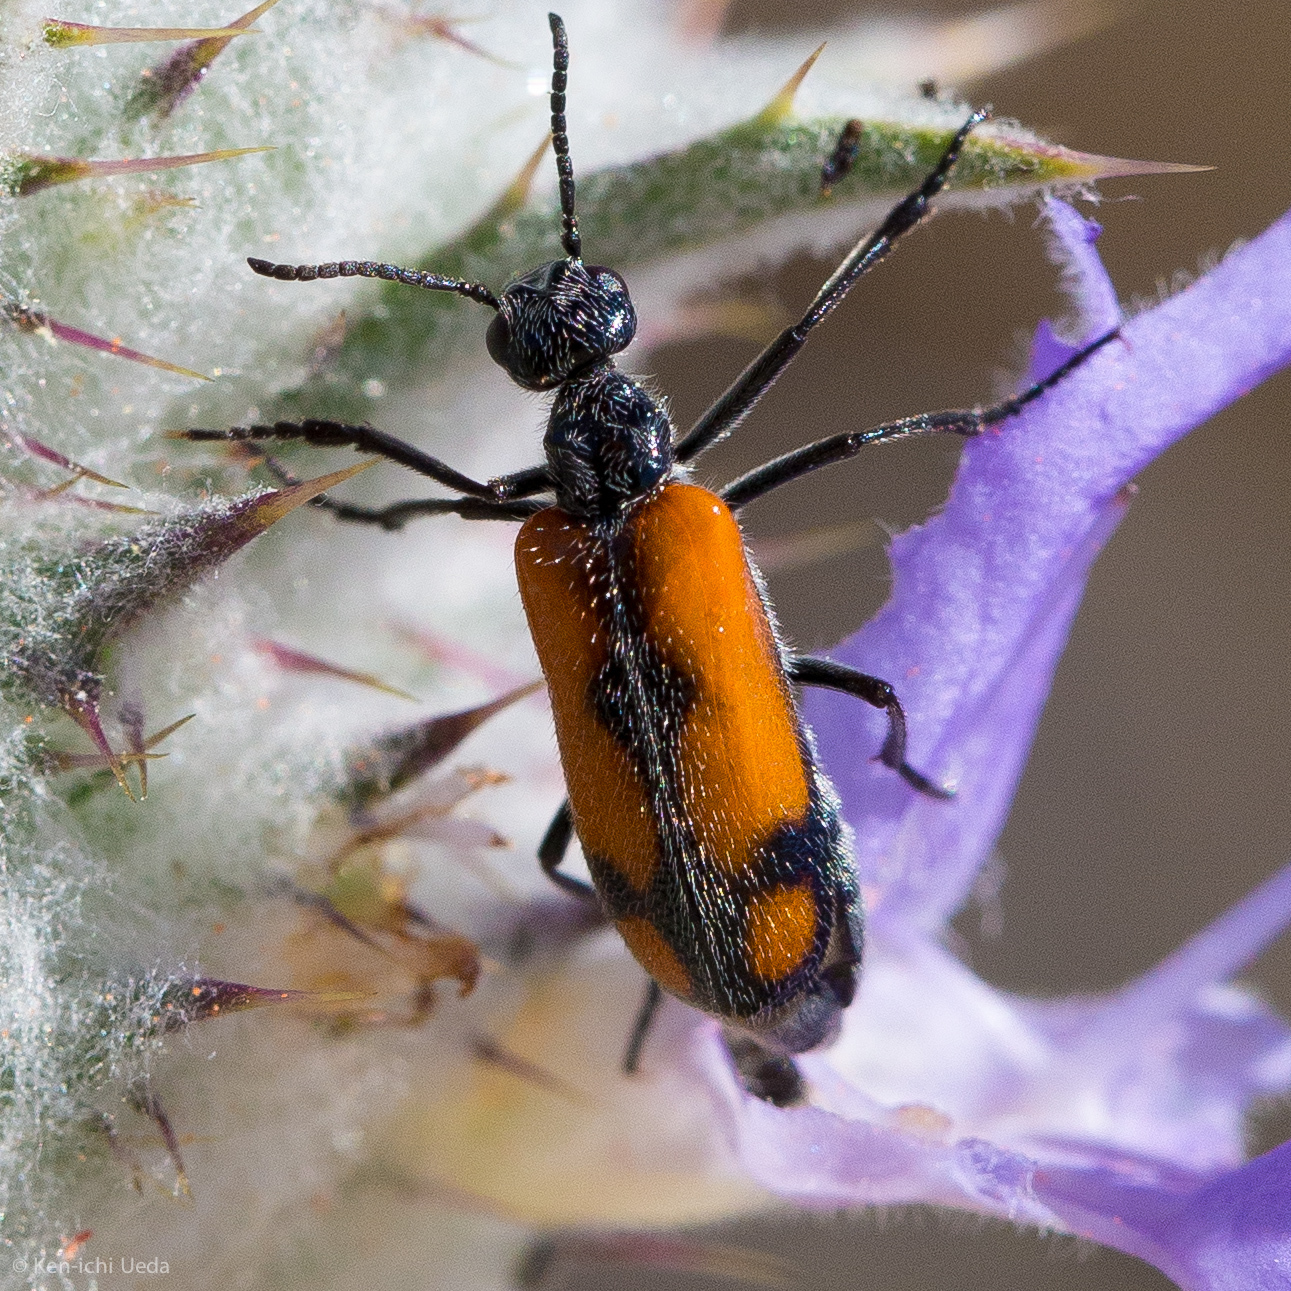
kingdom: Animalia
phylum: Arthropoda
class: Insecta
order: Coleoptera
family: Meloidae
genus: Eupompha
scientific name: Eupompha elegans
